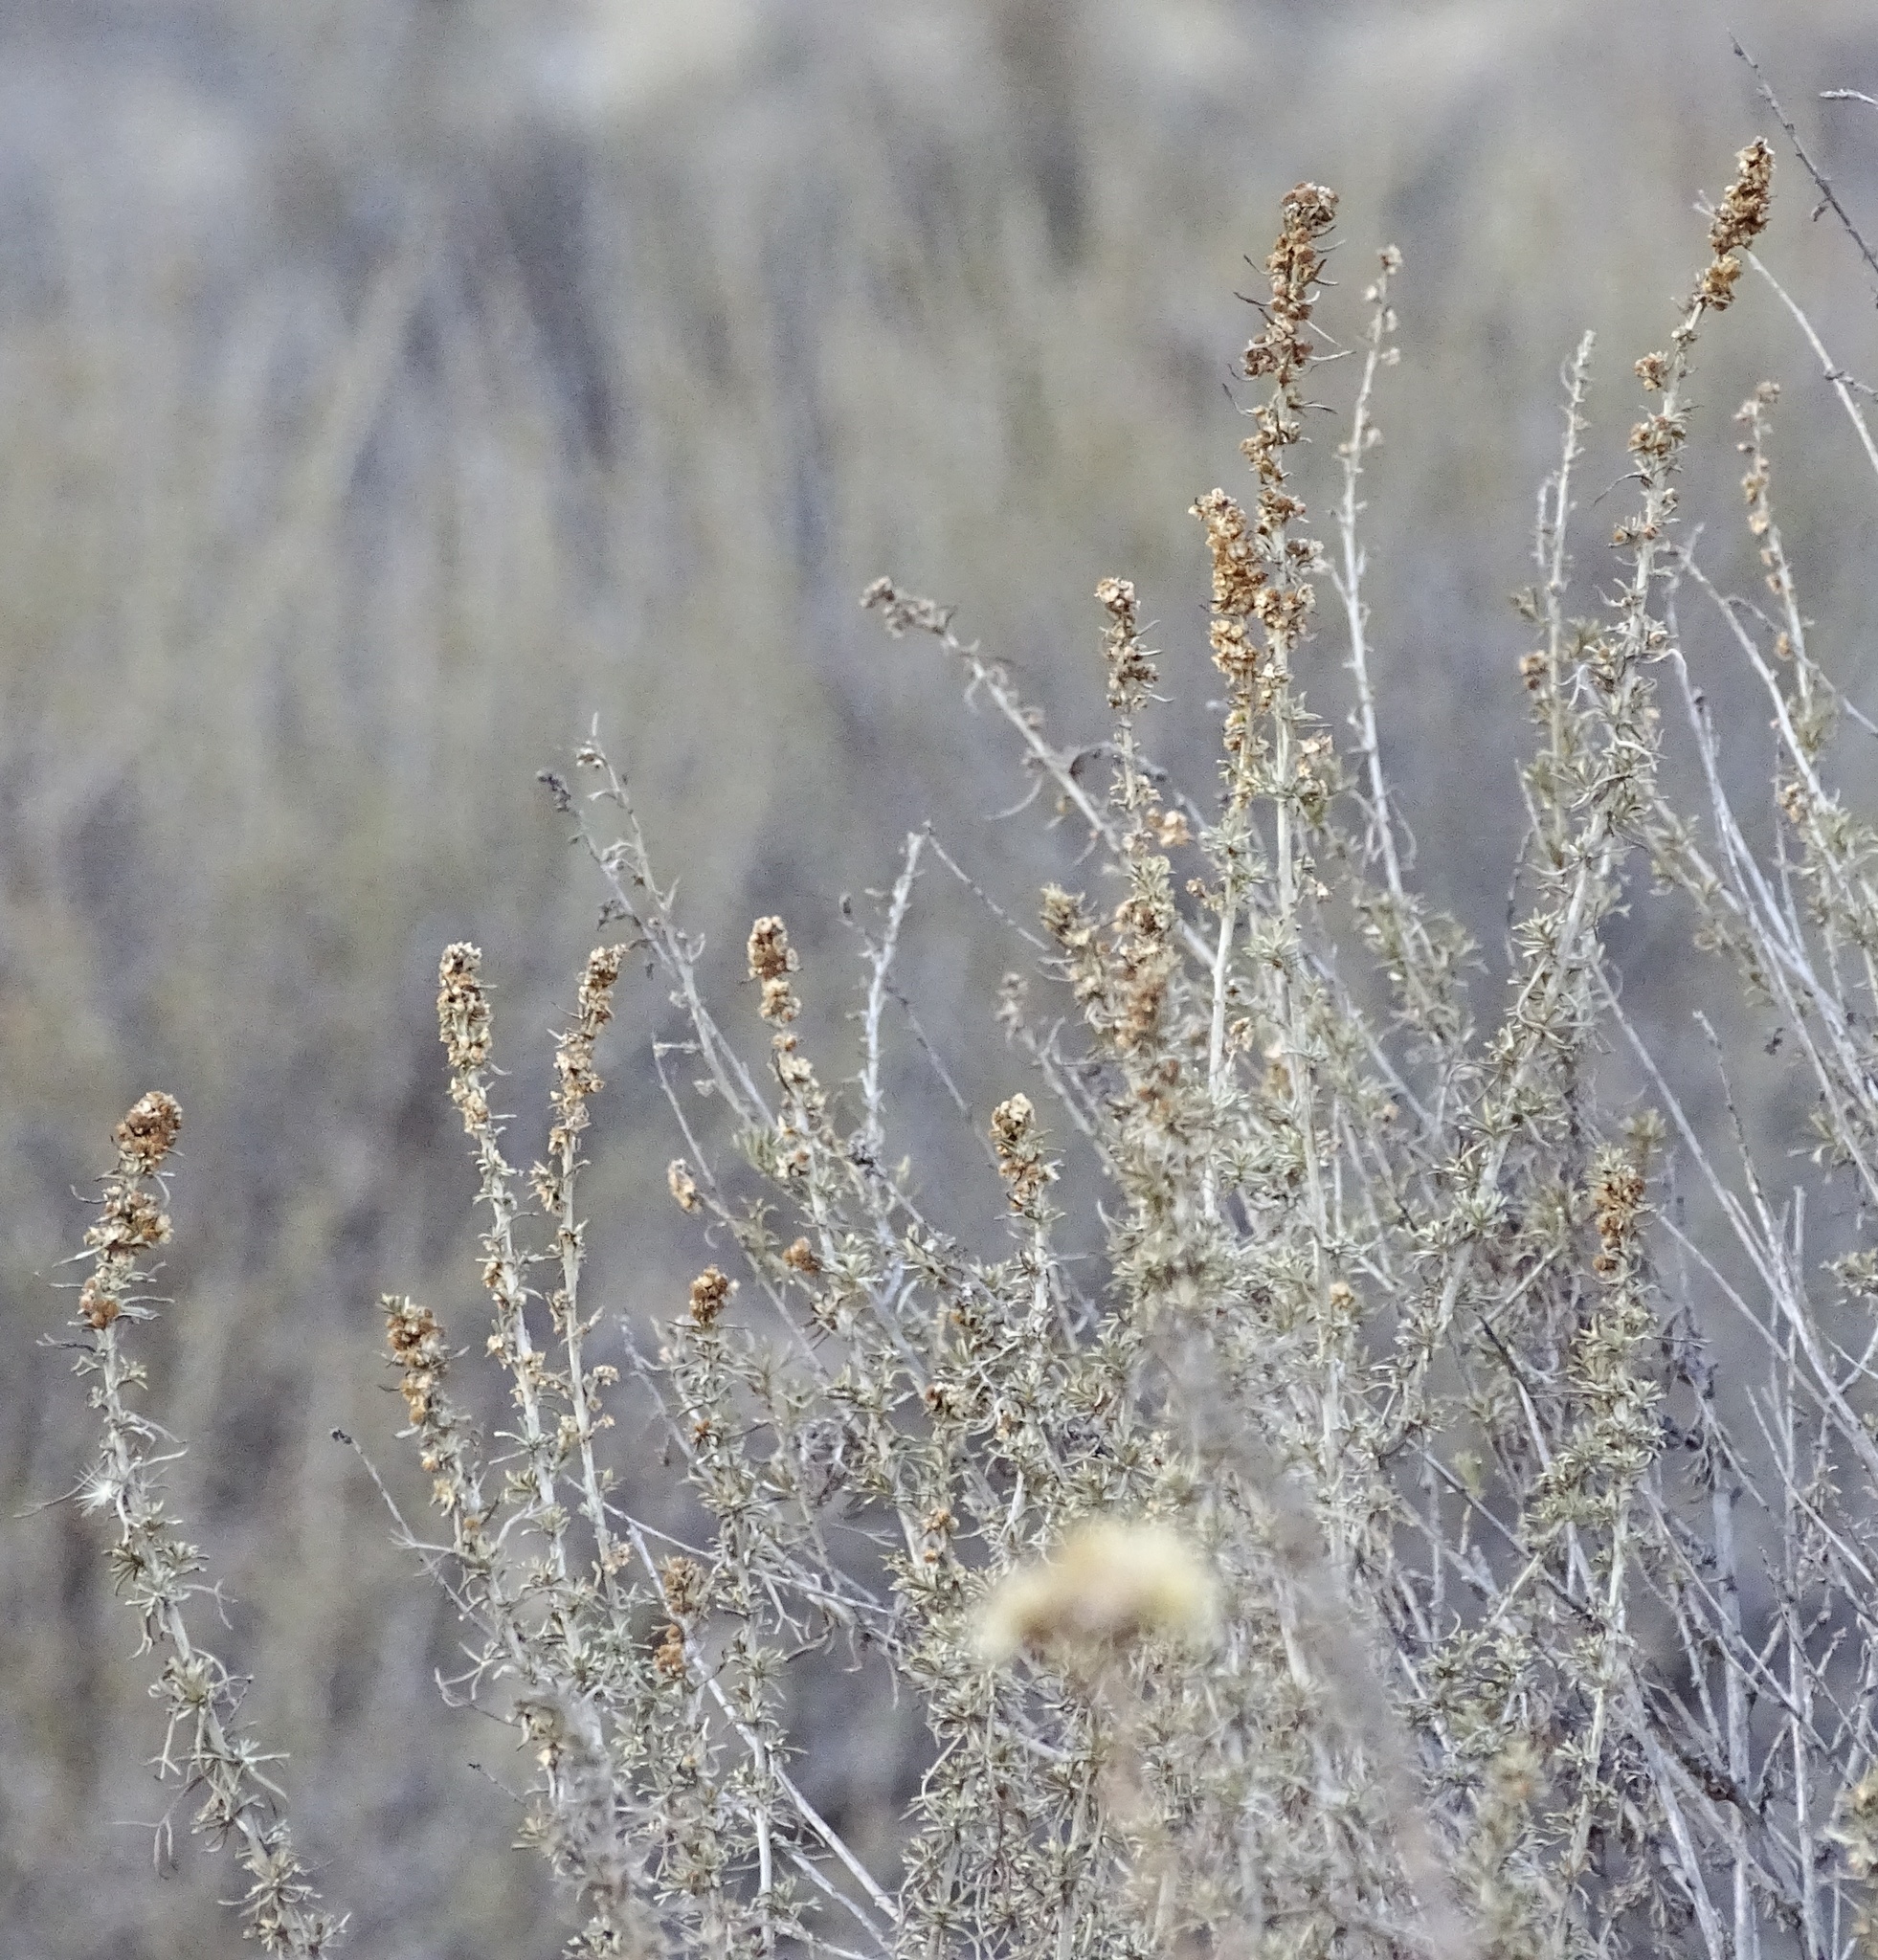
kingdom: Plantae
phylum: Tracheophyta
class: Magnoliopsida
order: Asterales
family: Asteraceae
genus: Artemisia
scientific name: Artemisia californica
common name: California sagebrush
